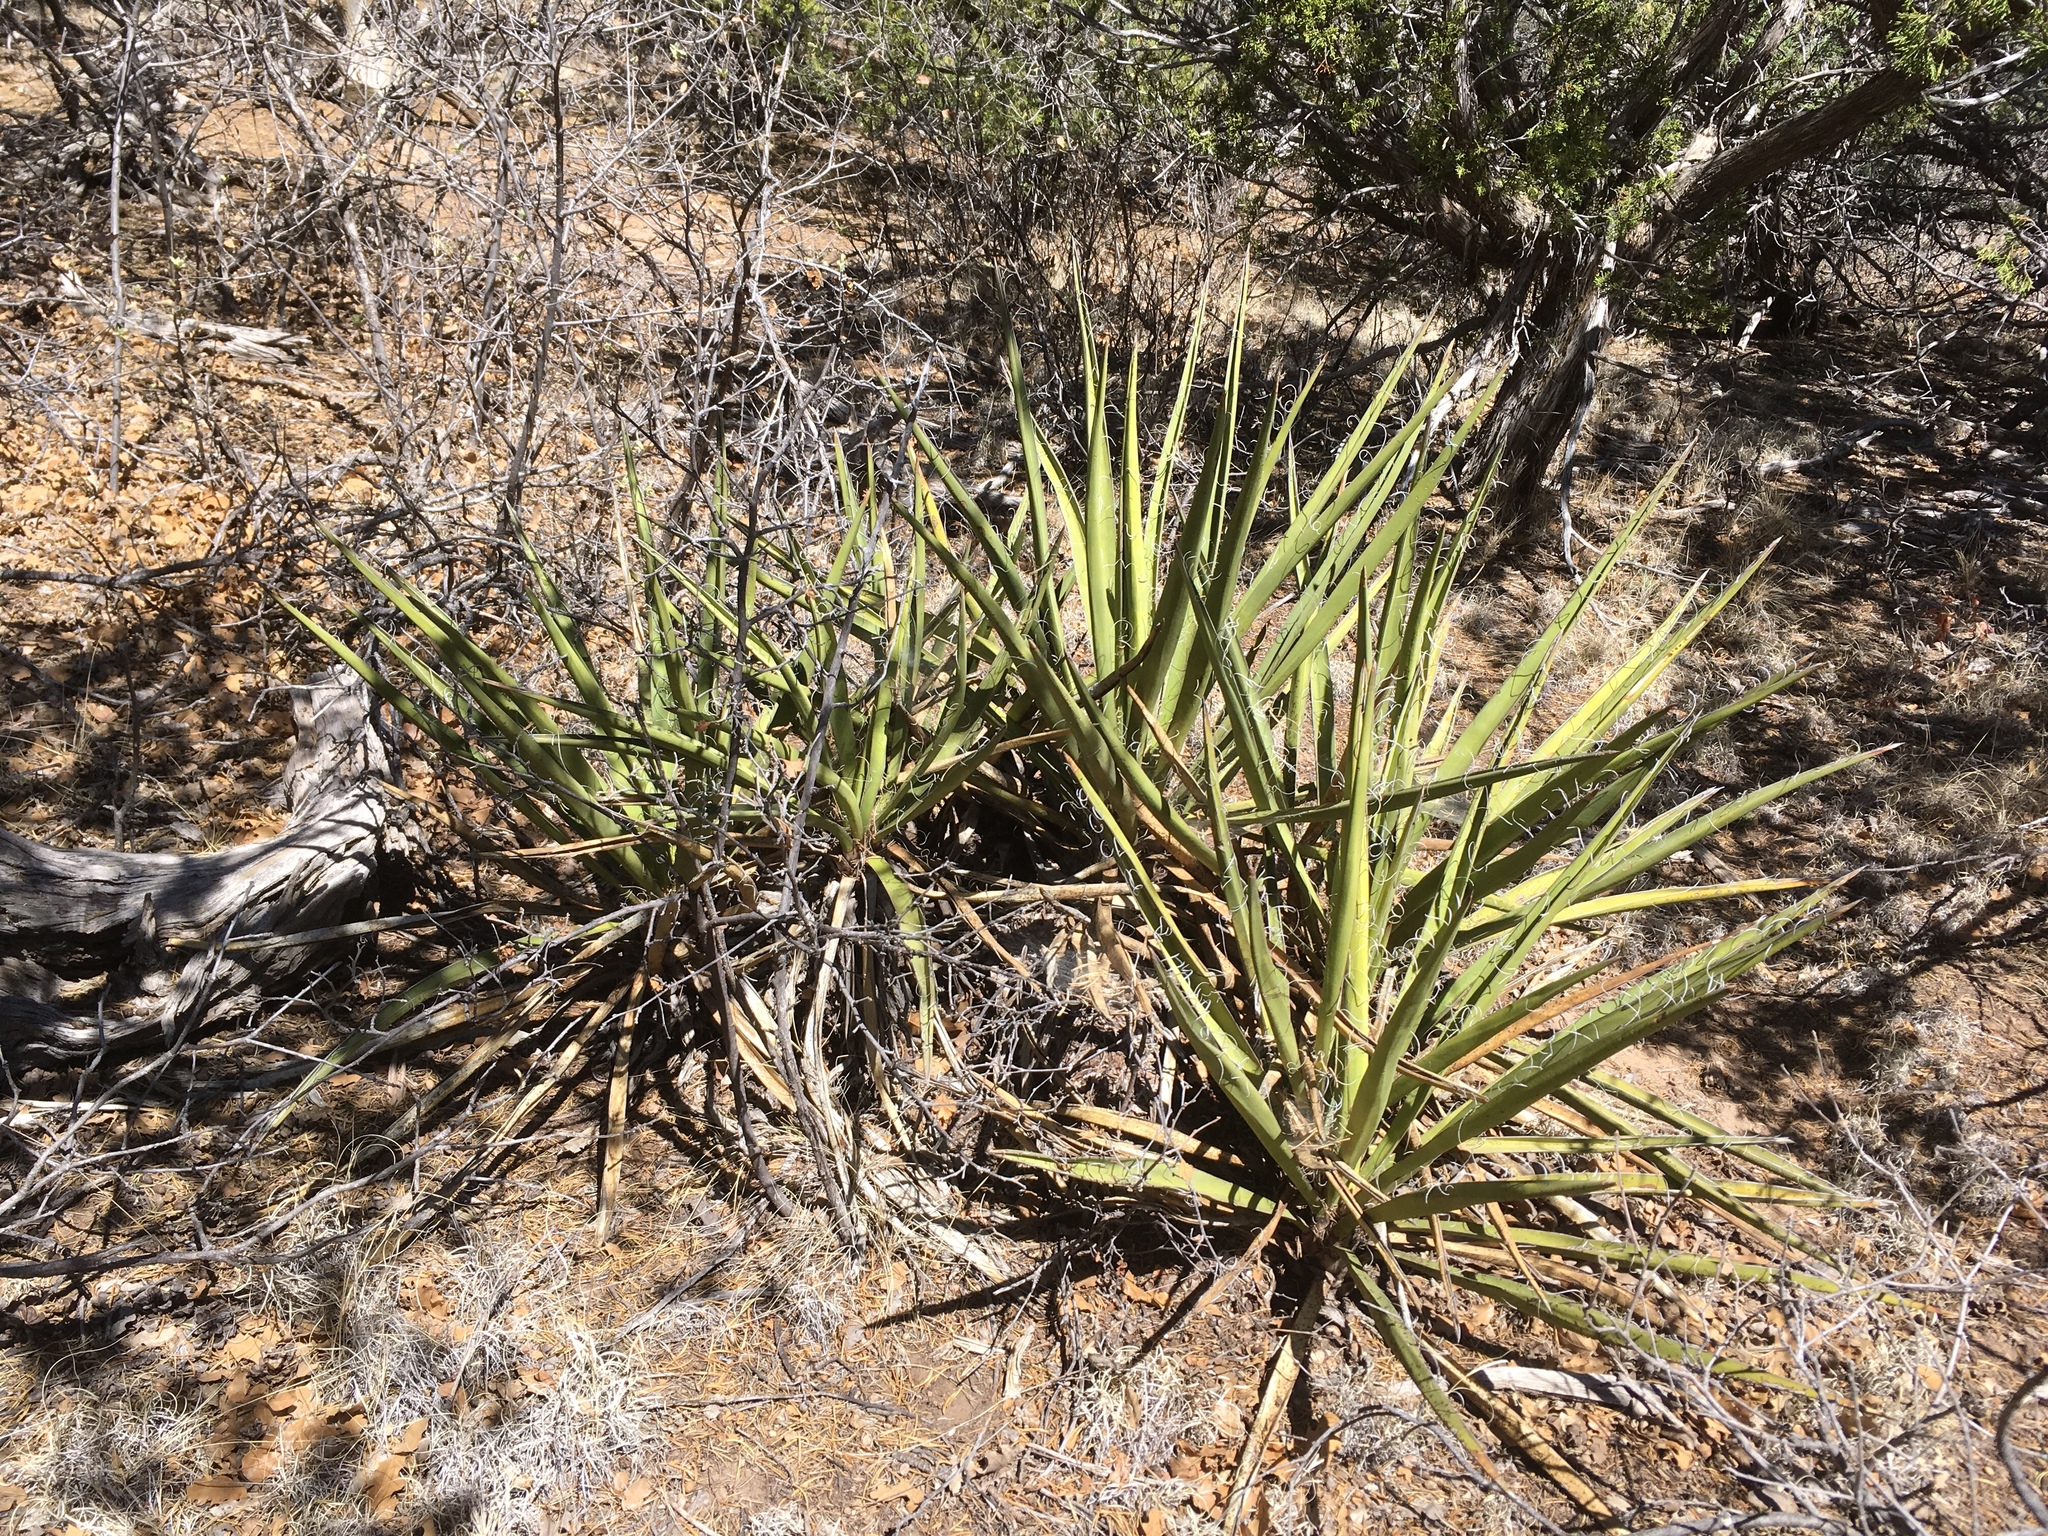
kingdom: Plantae
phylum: Tracheophyta
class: Liliopsida
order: Asparagales
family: Asparagaceae
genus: Yucca
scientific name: Yucca baccata
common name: Banana yucca
